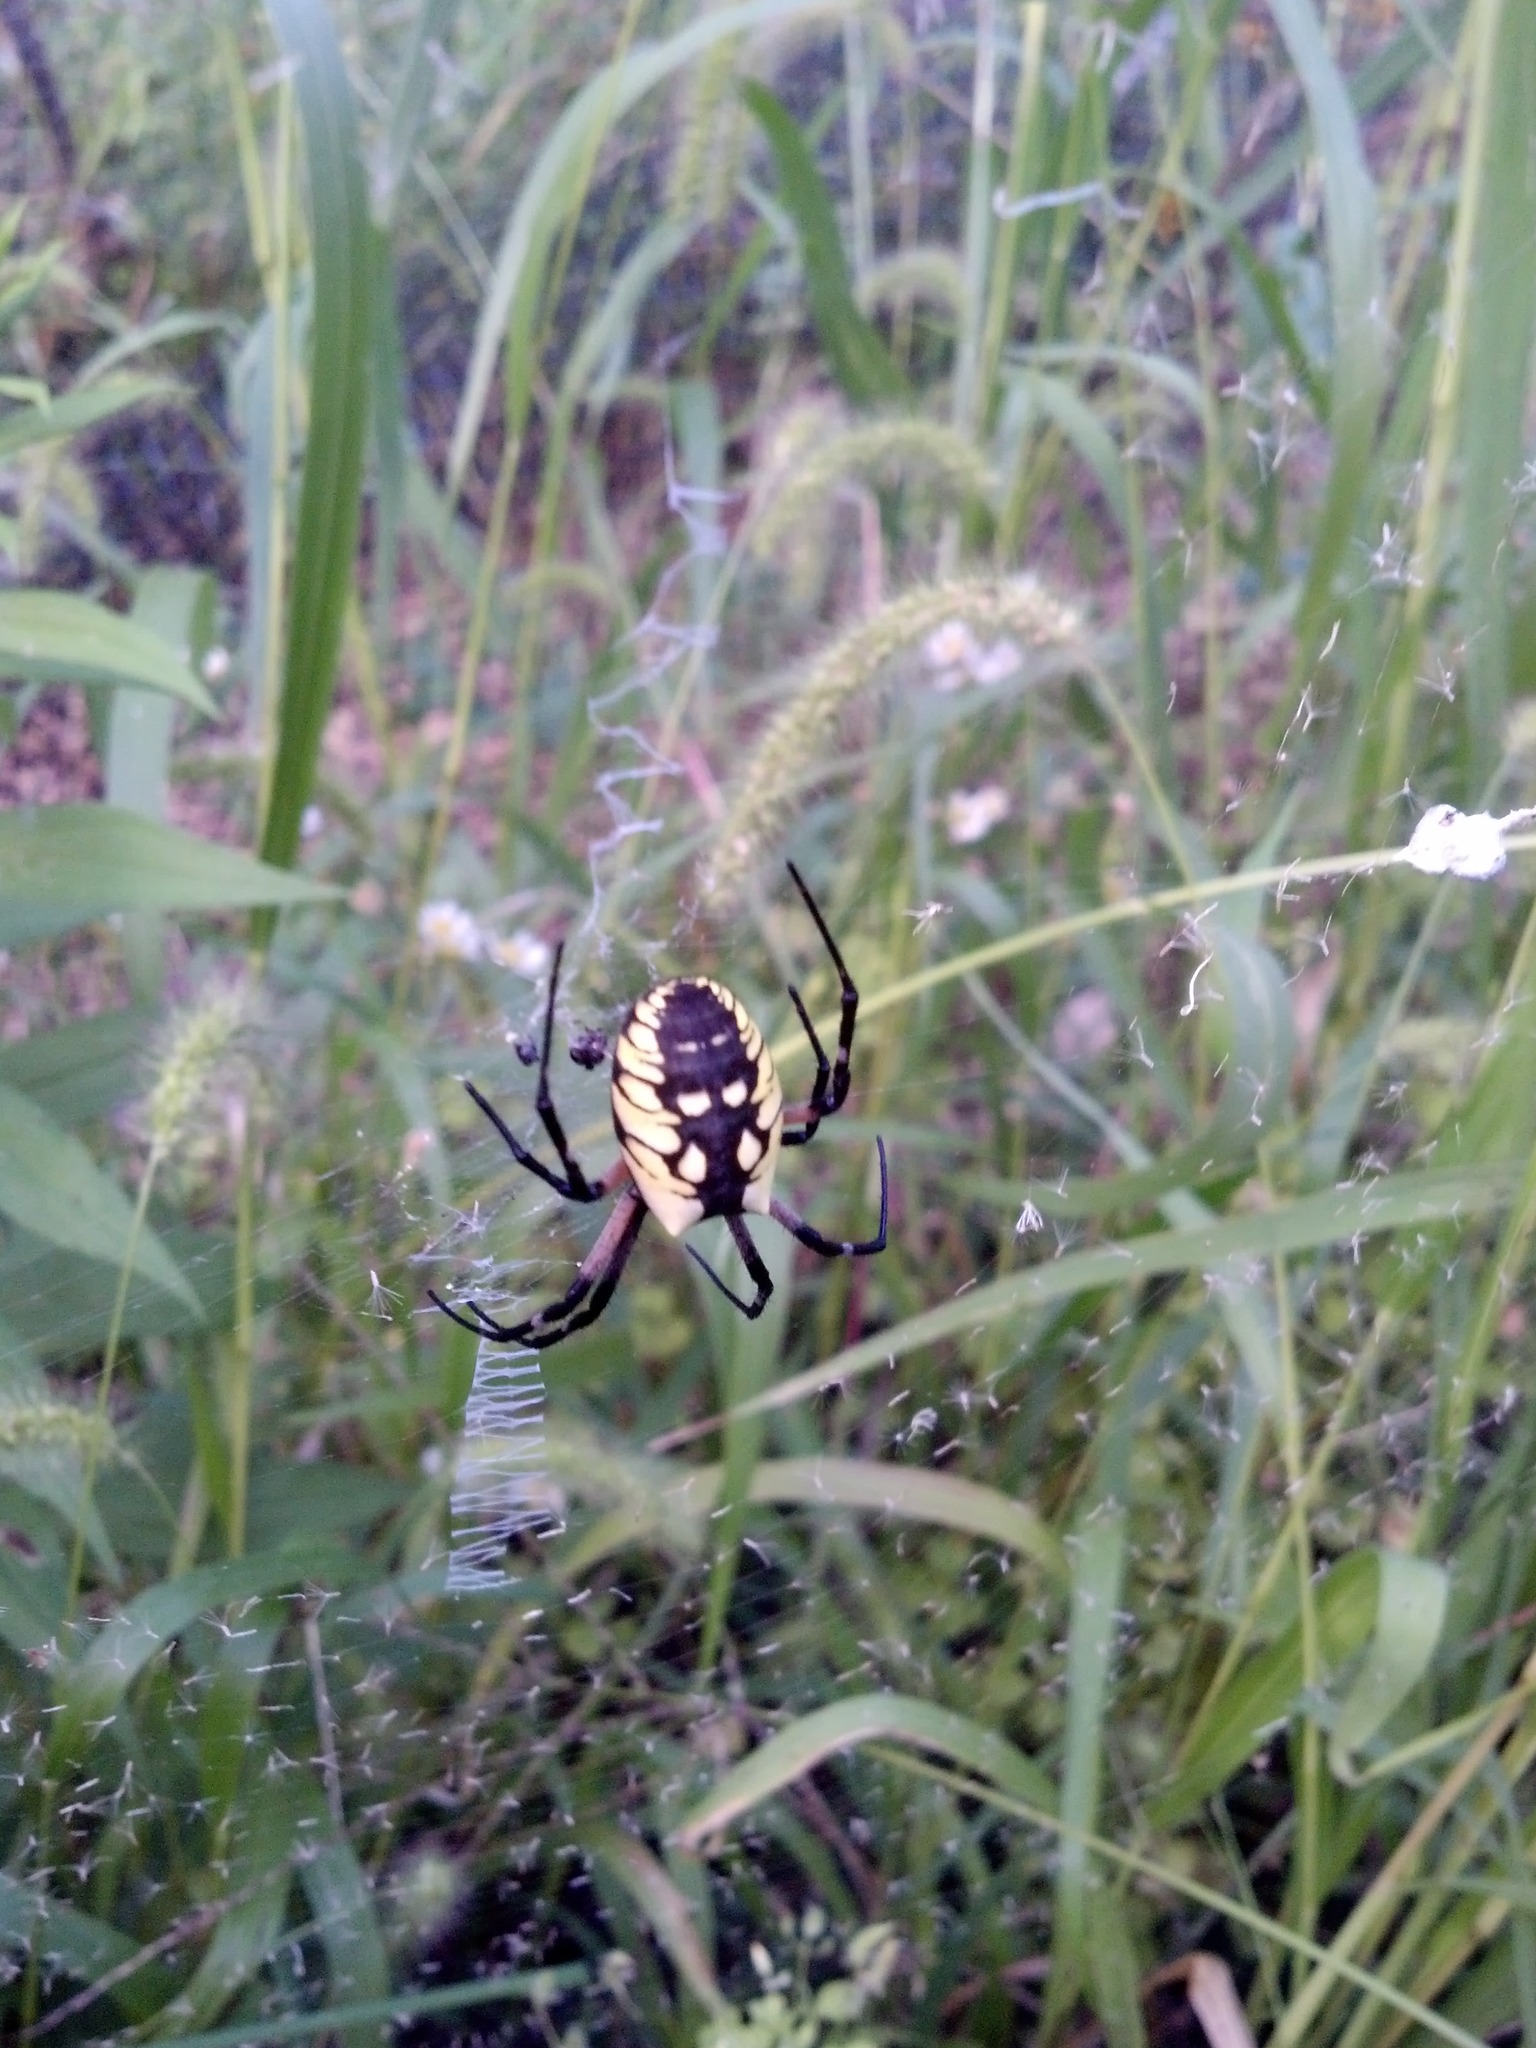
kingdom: Animalia
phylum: Arthropoda
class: Arachnida
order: Araneae
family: Araneidae
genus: Argiope
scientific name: Argiope aurantia
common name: Orb weavers
